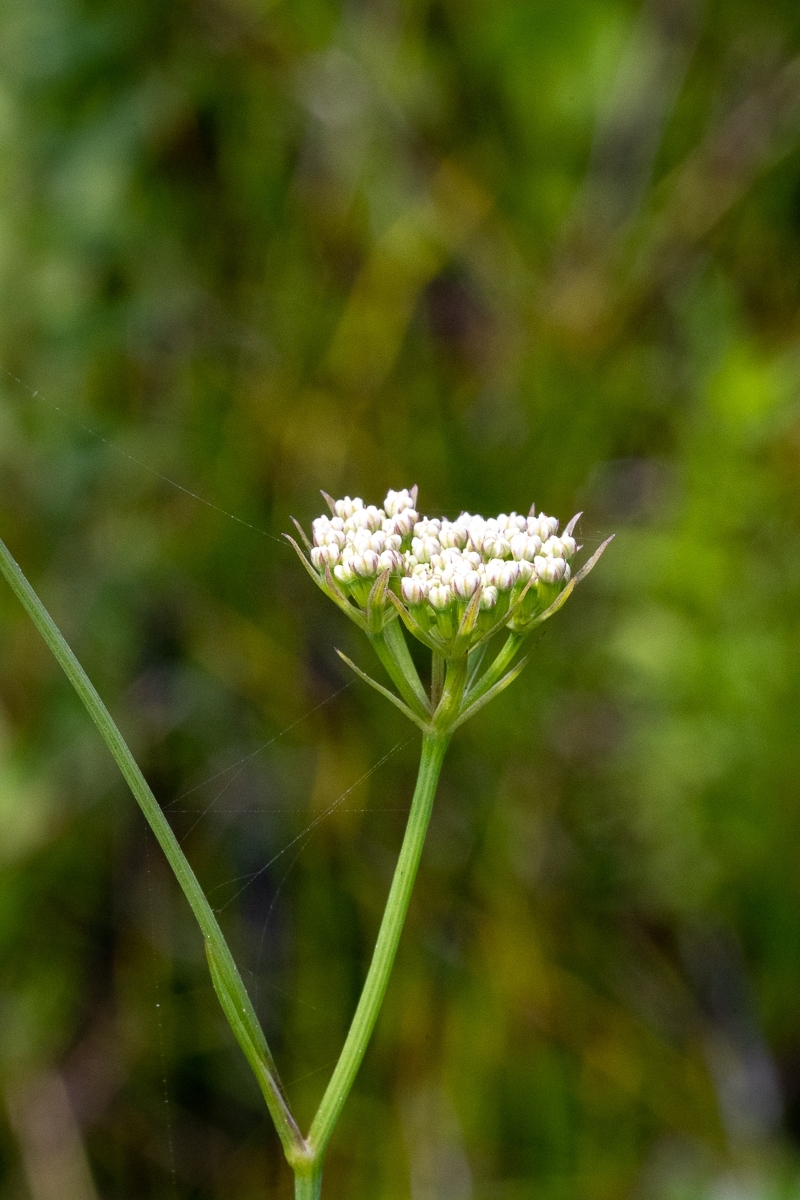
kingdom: Plantae
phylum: Tracheophyta
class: Magnoliopsida
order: Apiales
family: Apiaceae
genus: Itasina
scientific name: Itasina filifolia
